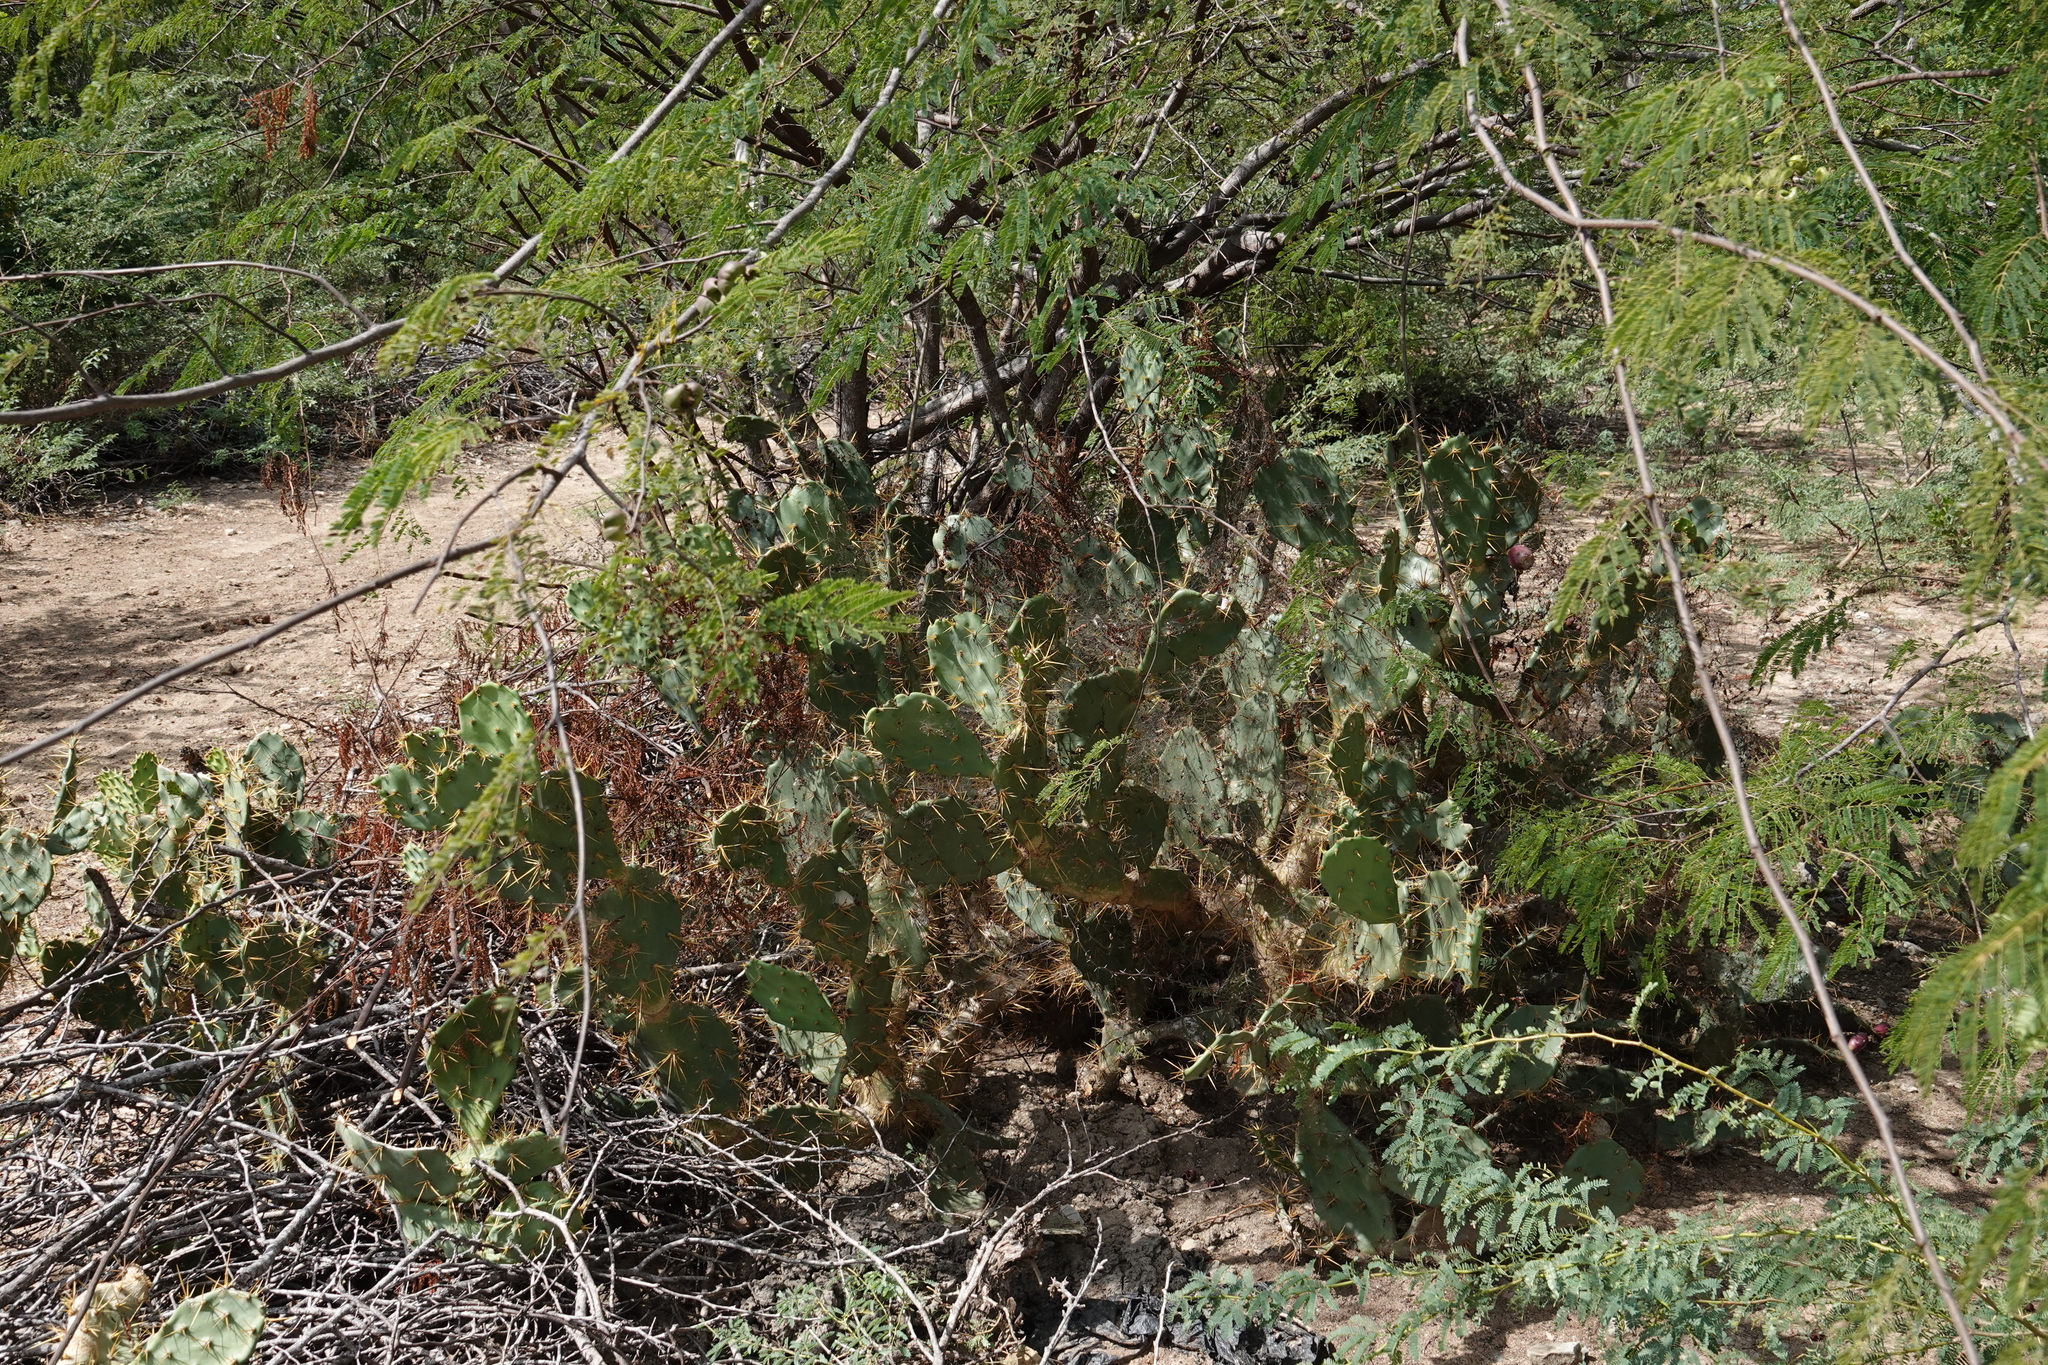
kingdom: Plantae
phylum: Tracheophyta
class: Magnoliopsida
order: Caryophyllales
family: Cactaceae
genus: Opuntia
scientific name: Opuntia cubensis
